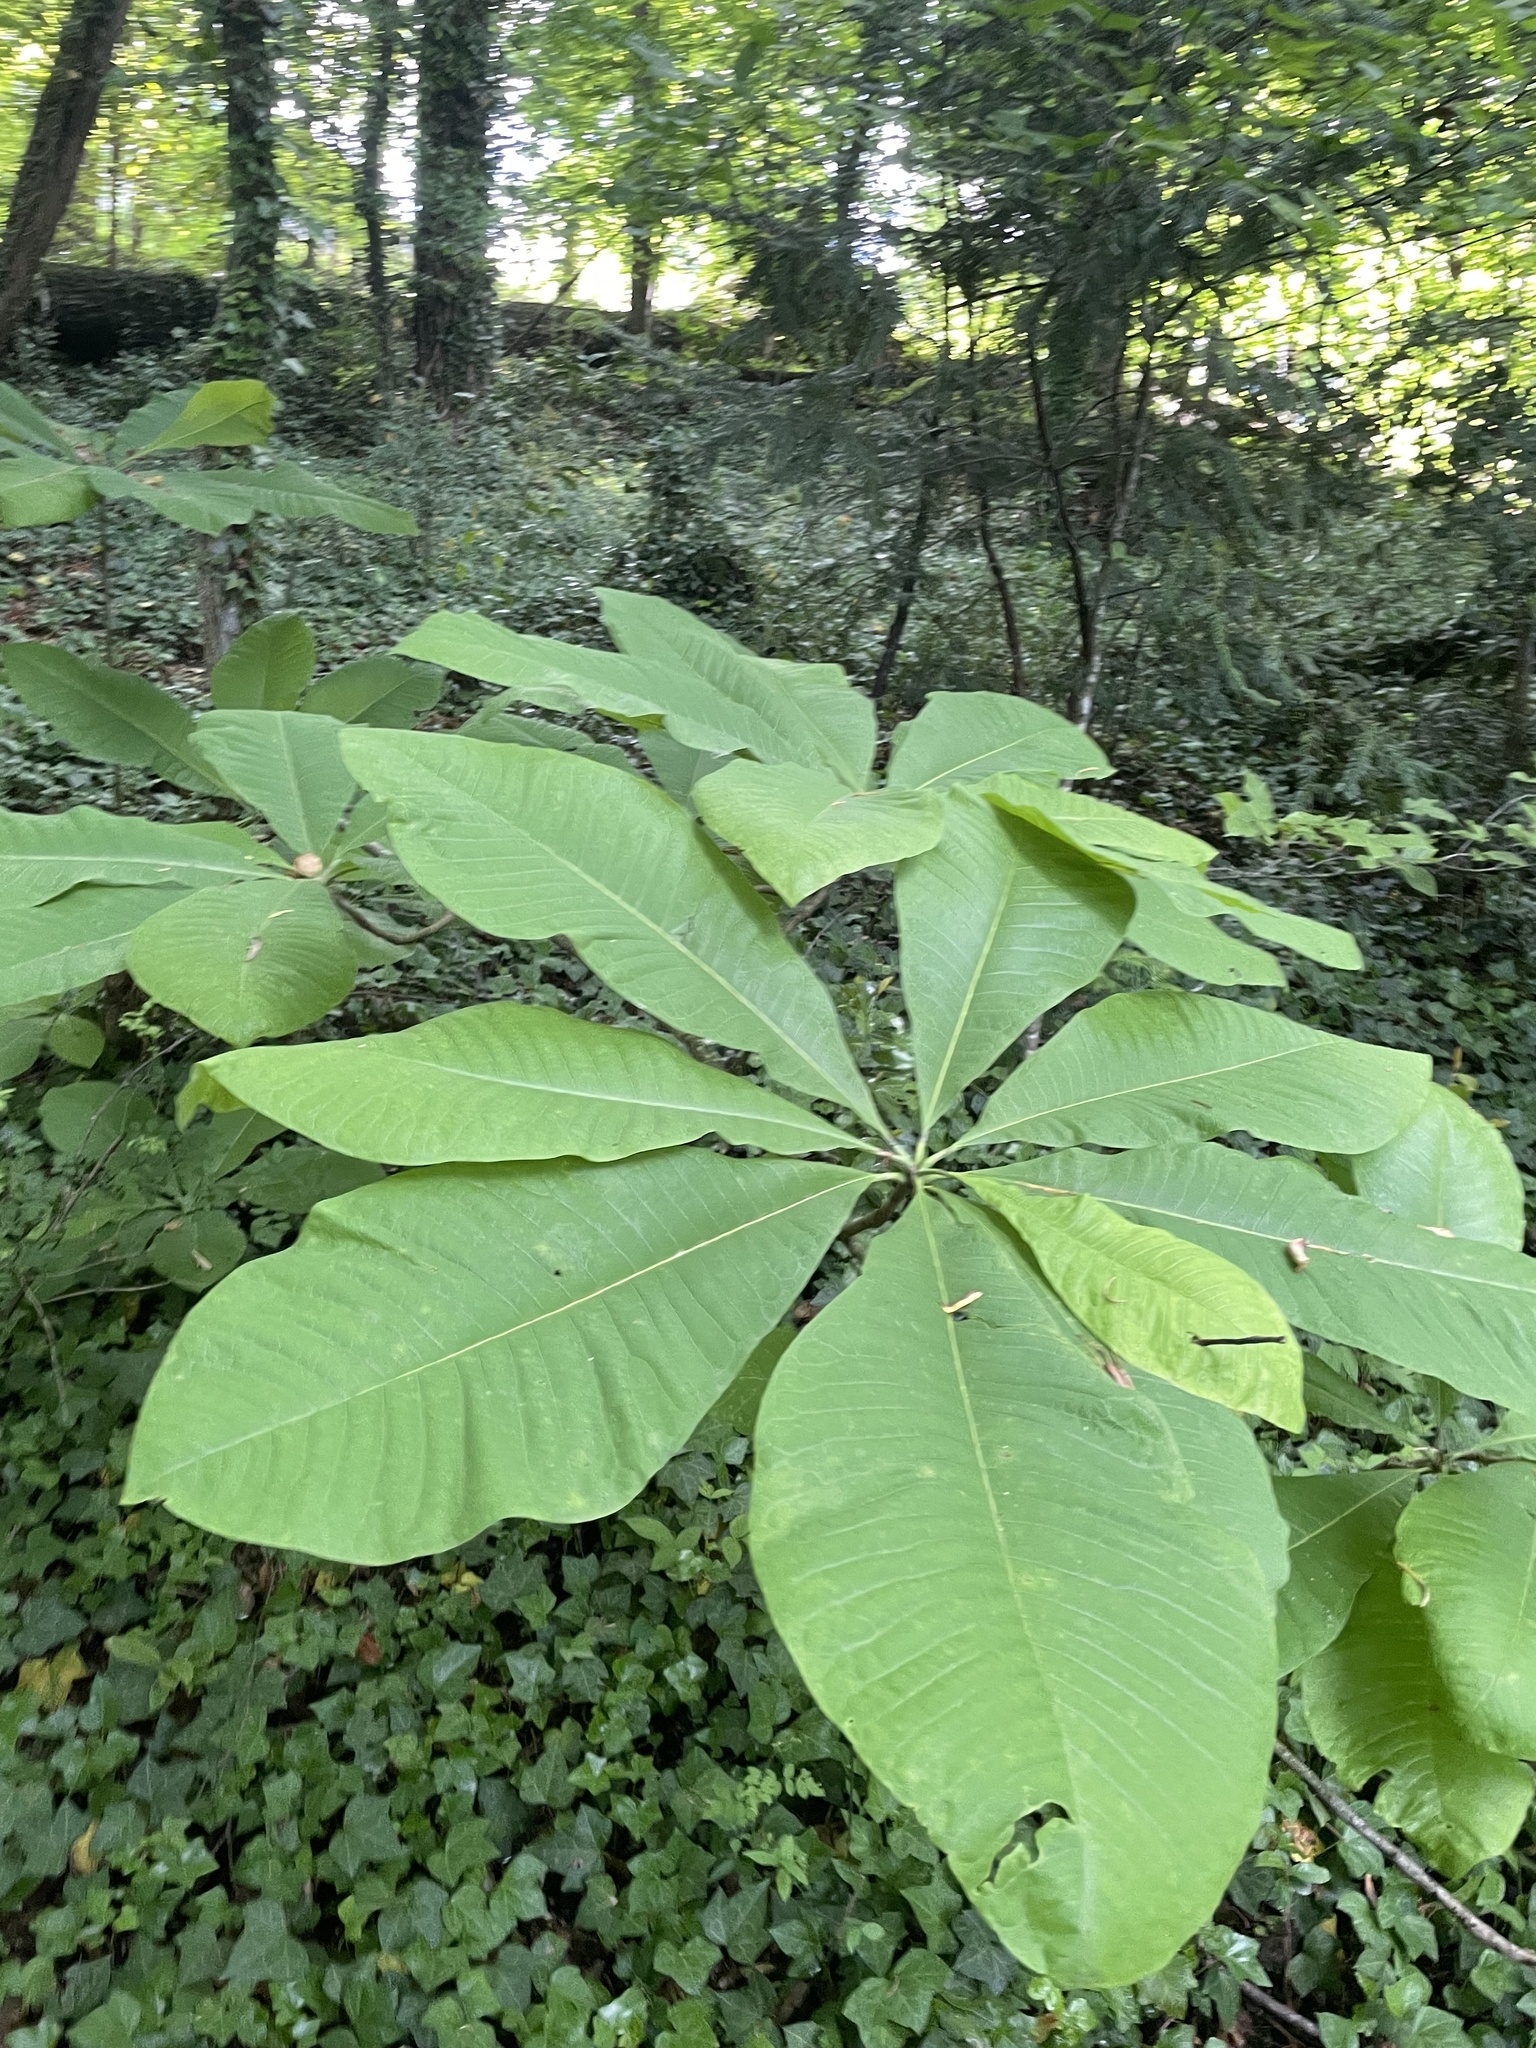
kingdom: Plantae
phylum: Tracheophyta
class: Magnoliopsida
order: Magnoliales
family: Magnoliaceae
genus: Magnolia
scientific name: Magnolia tripetala
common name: Umbrella magnolia
